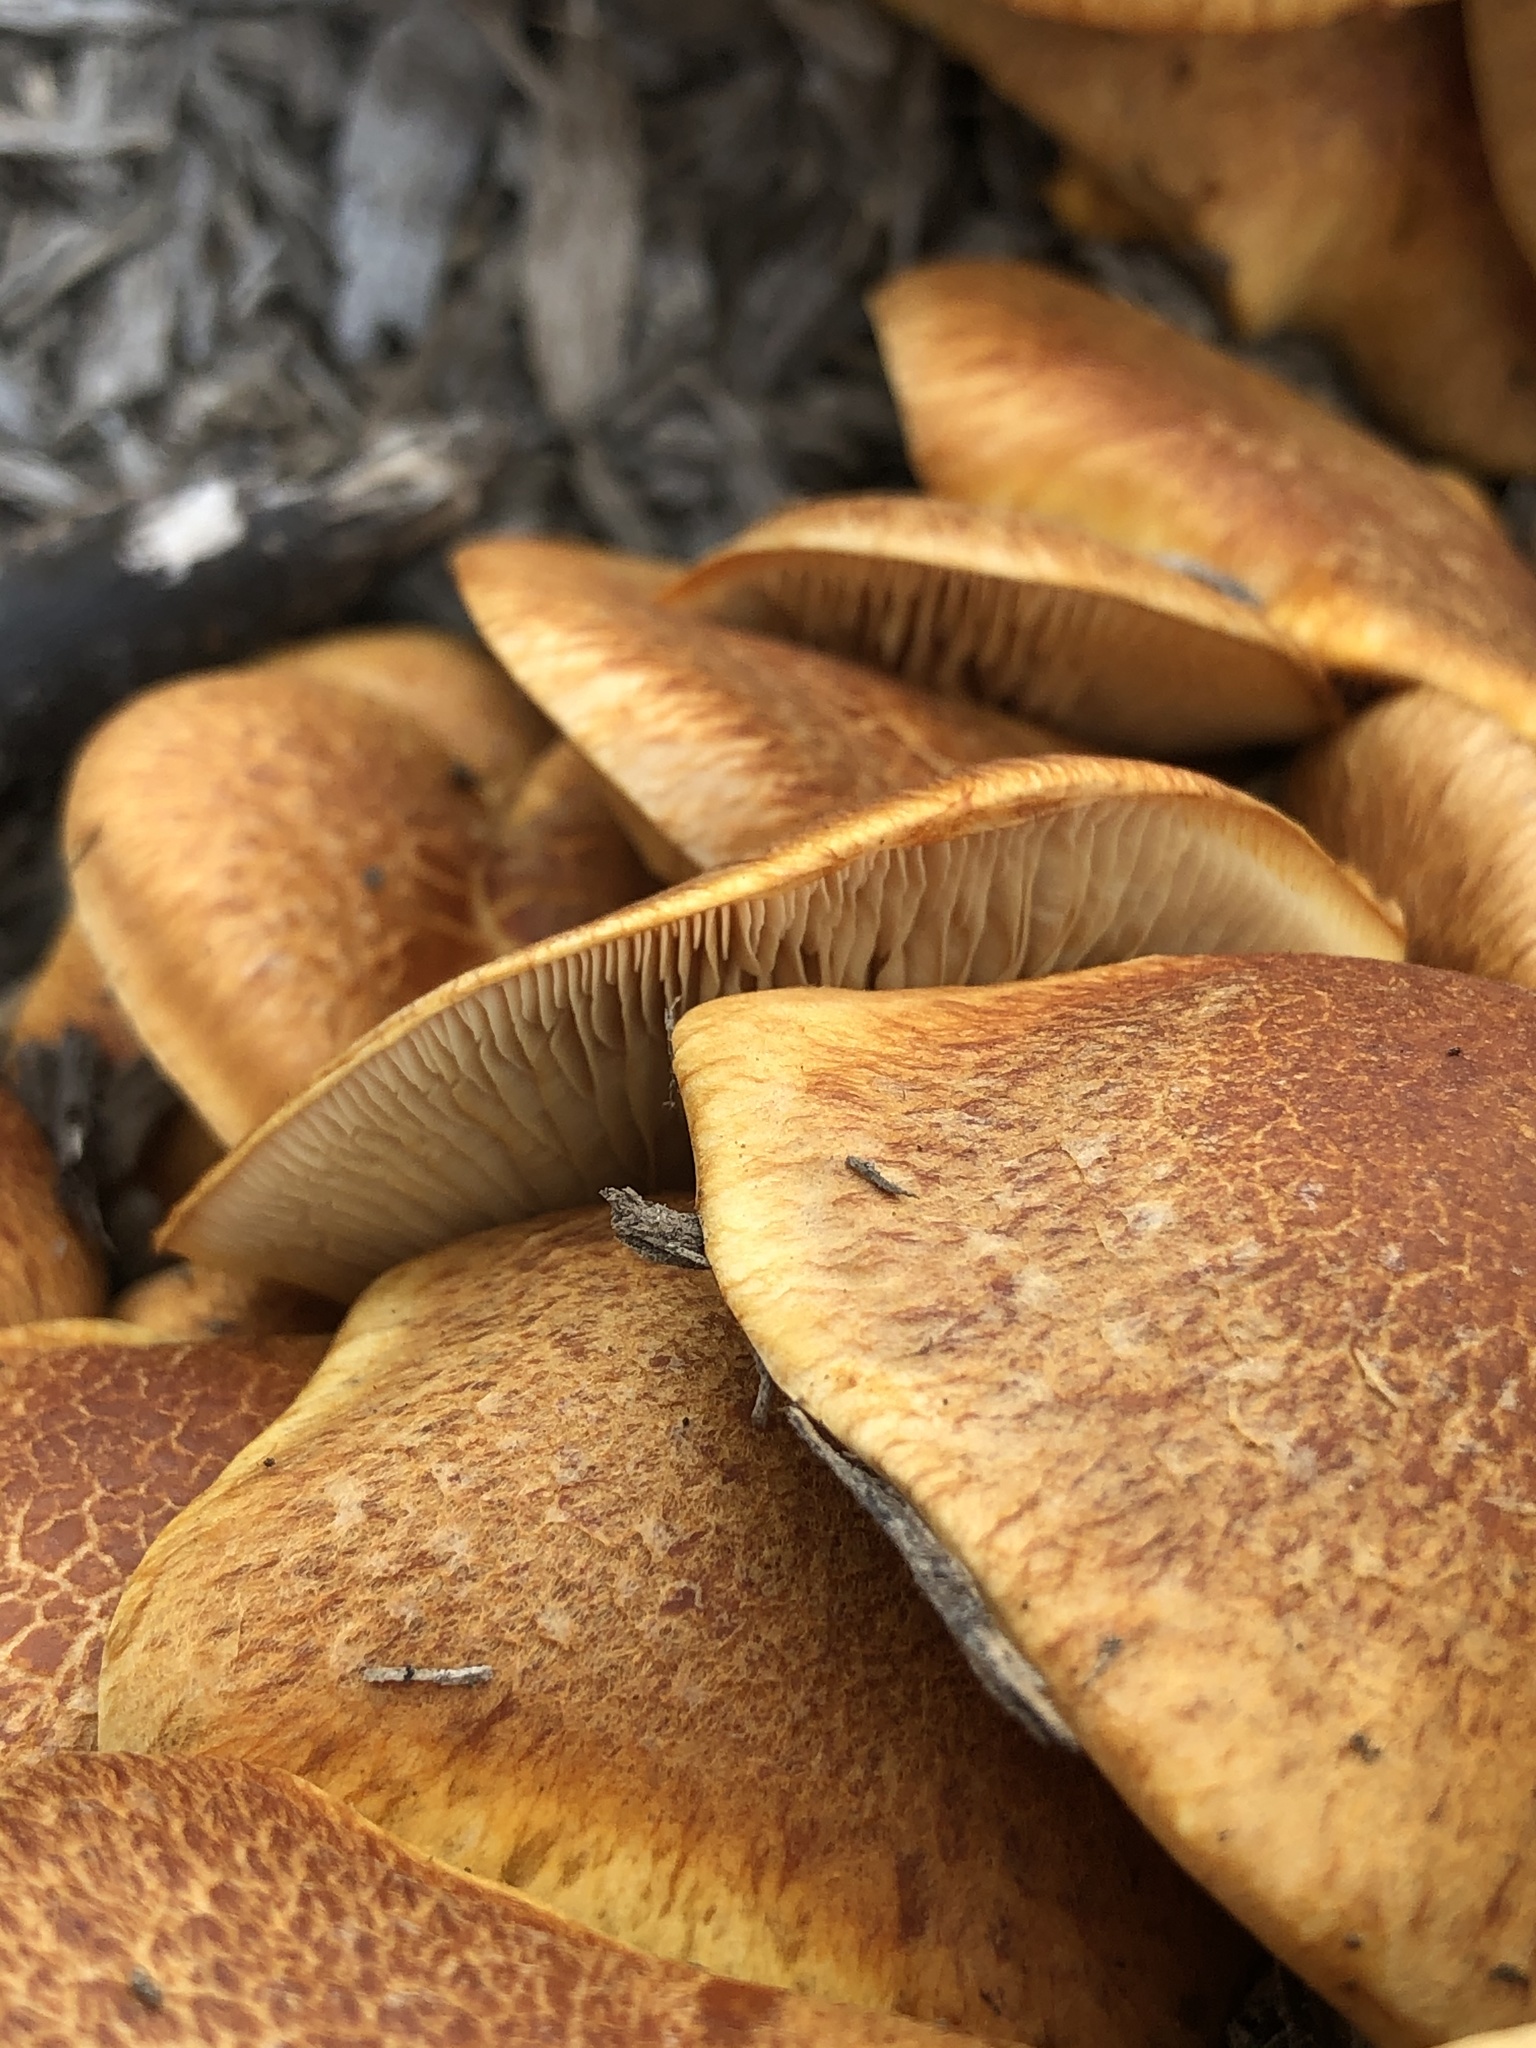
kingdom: Fungi
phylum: Basidiomycota
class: Agaricomycetes
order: Agaricales
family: Hymenogastraceae
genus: Gymnopilus
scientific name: Gymnopilus junonius
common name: Spectacular rustgill
